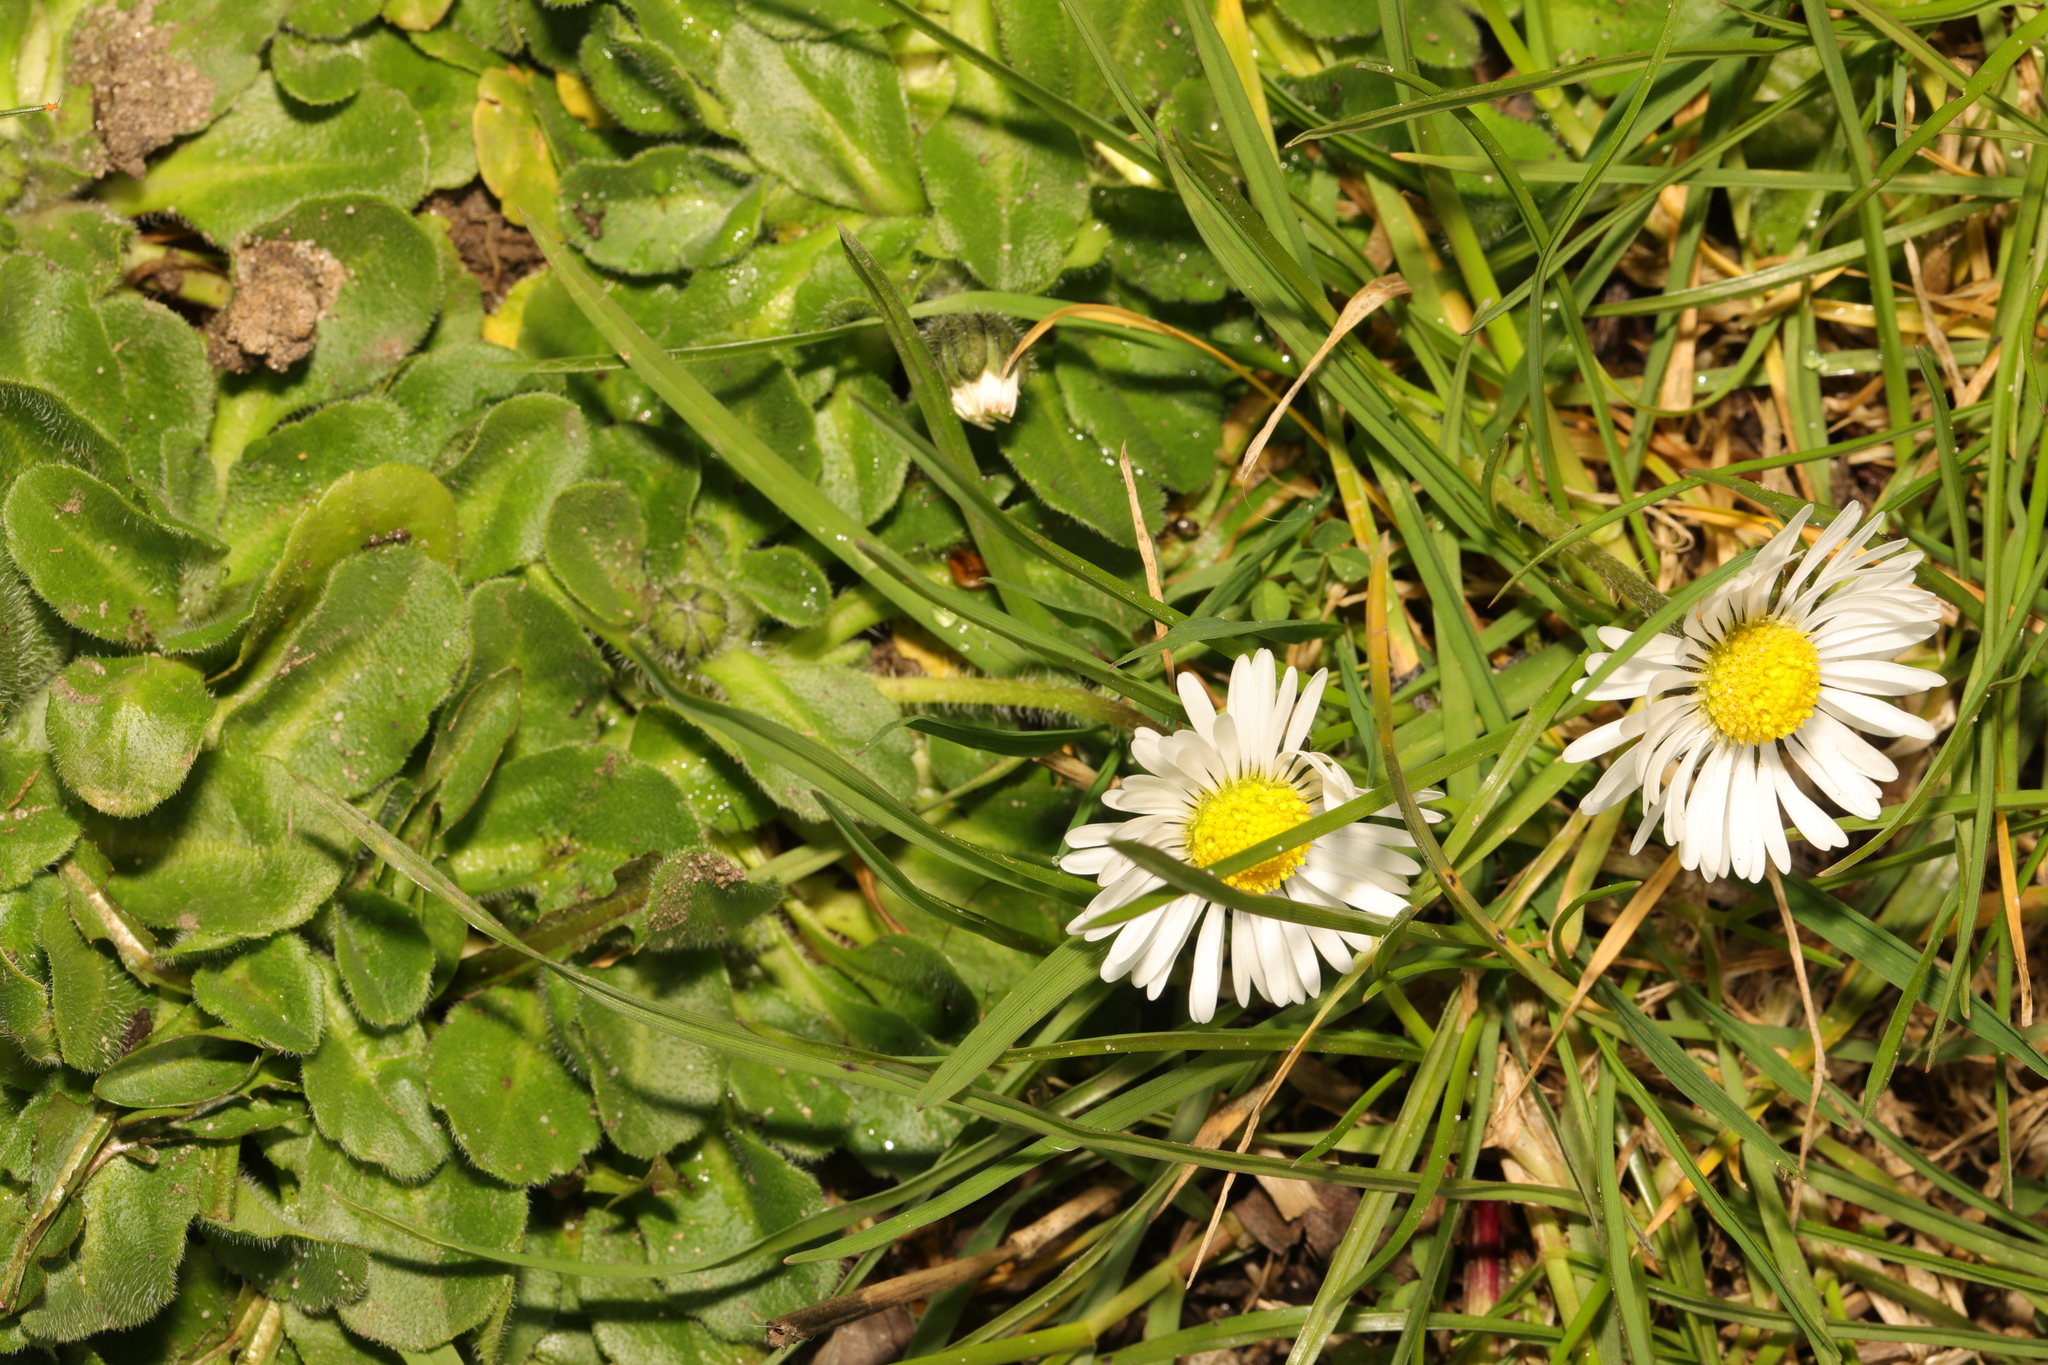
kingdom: Plantae
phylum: Tracheophyta
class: Magnoliopsida
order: Asterales
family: Asteraceae
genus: Bellis
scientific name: Bellis perennis
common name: Lawndaisy
